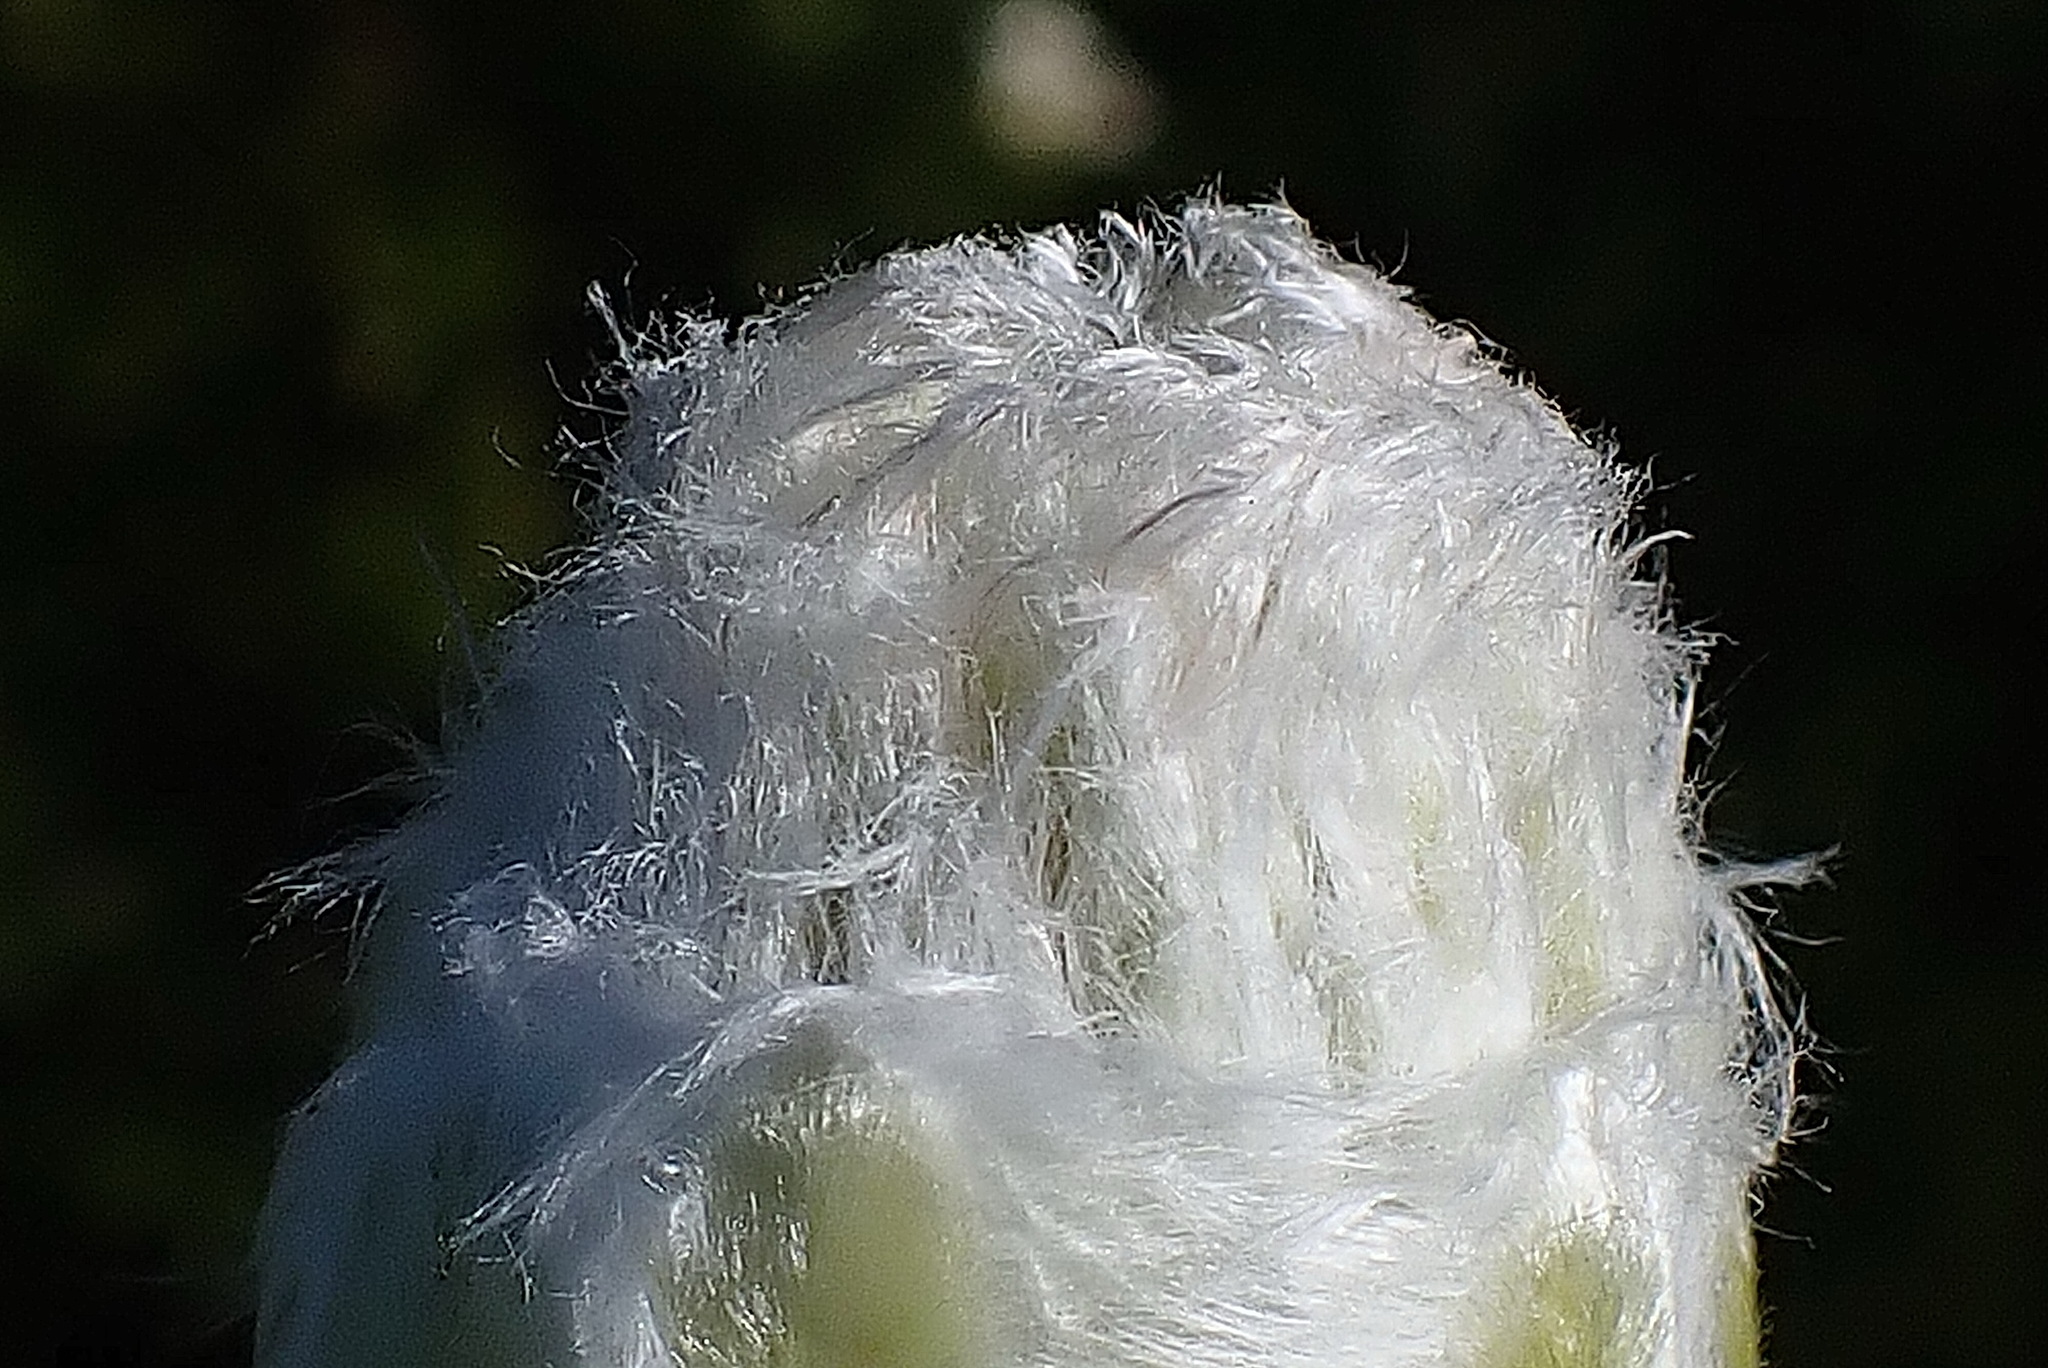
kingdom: Plantae
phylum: Tracheophyta
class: Magnoliopsida
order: Proteales
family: Proteaceae
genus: Protea
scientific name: Protea mundii
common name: Forest sugarbush
